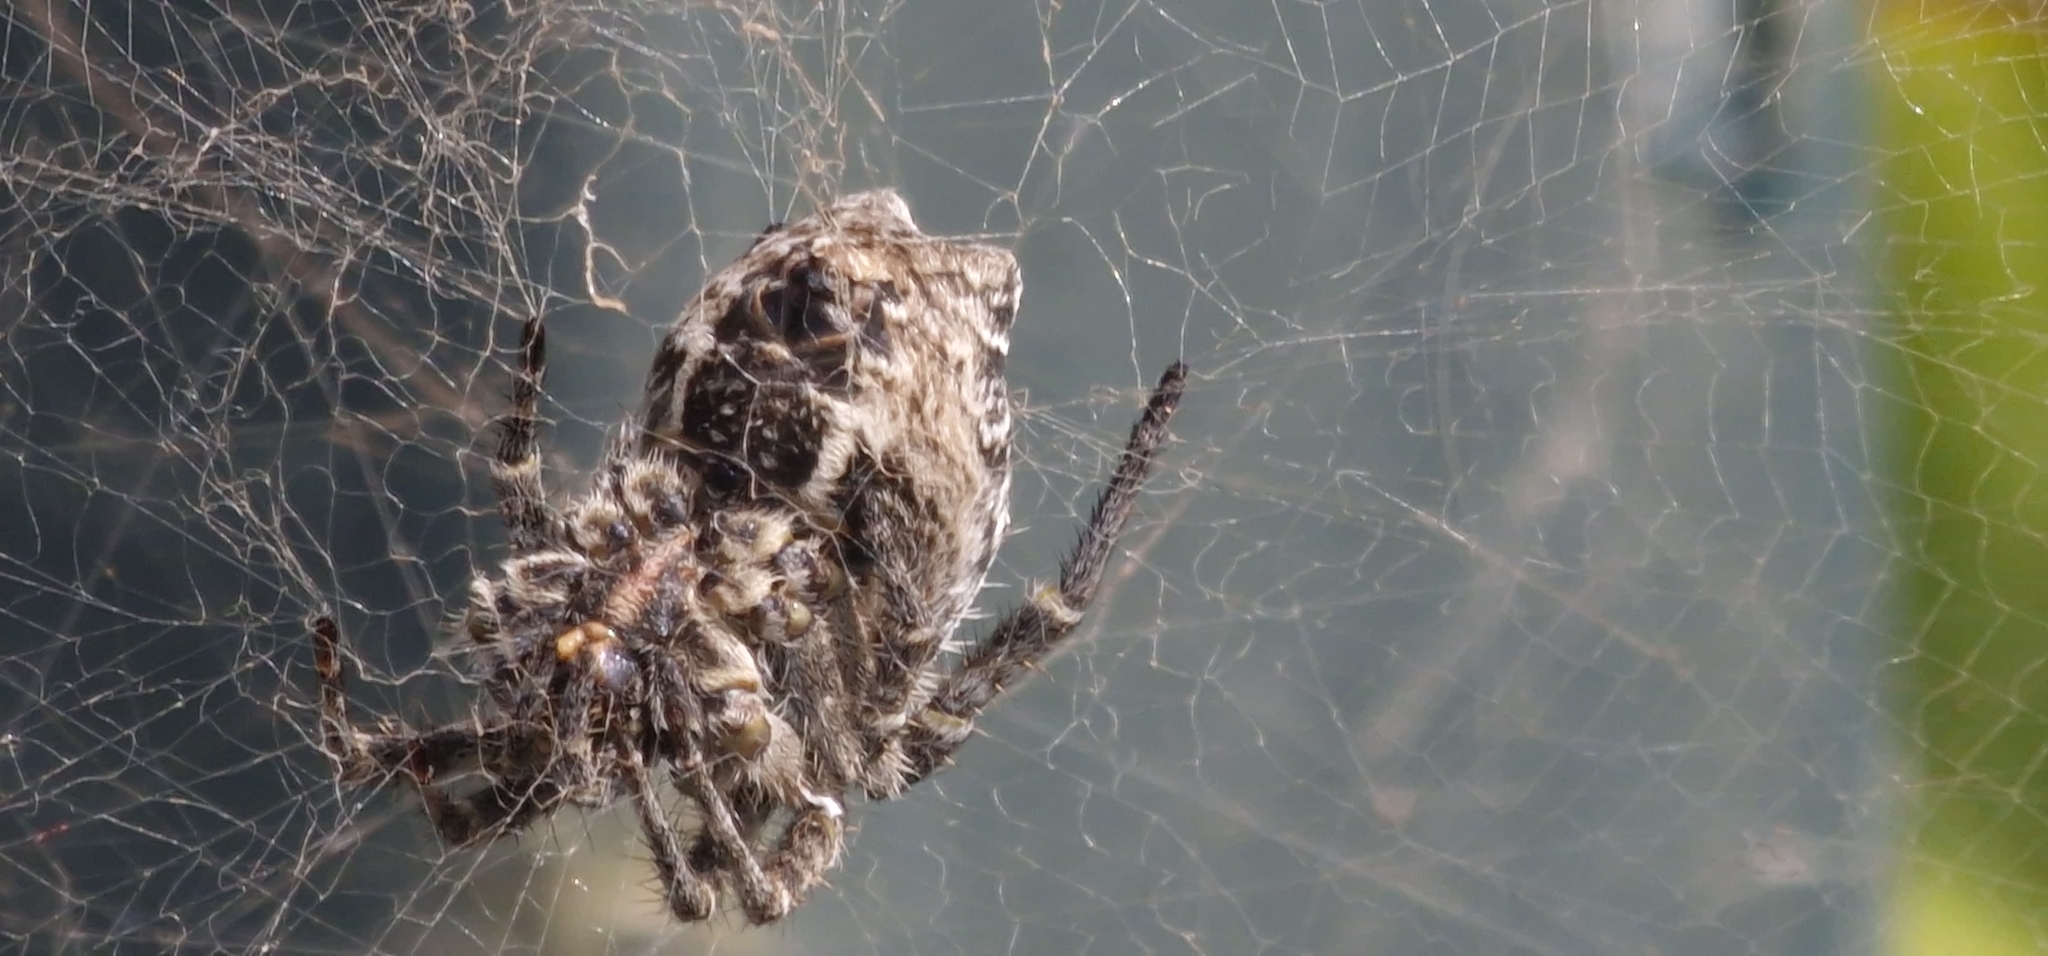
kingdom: Animalia
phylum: Arthropoda
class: Arachnida
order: Araneae
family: Araneidae
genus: Cyrtophora
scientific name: Cyrtophora citricola
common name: Orb weavers
